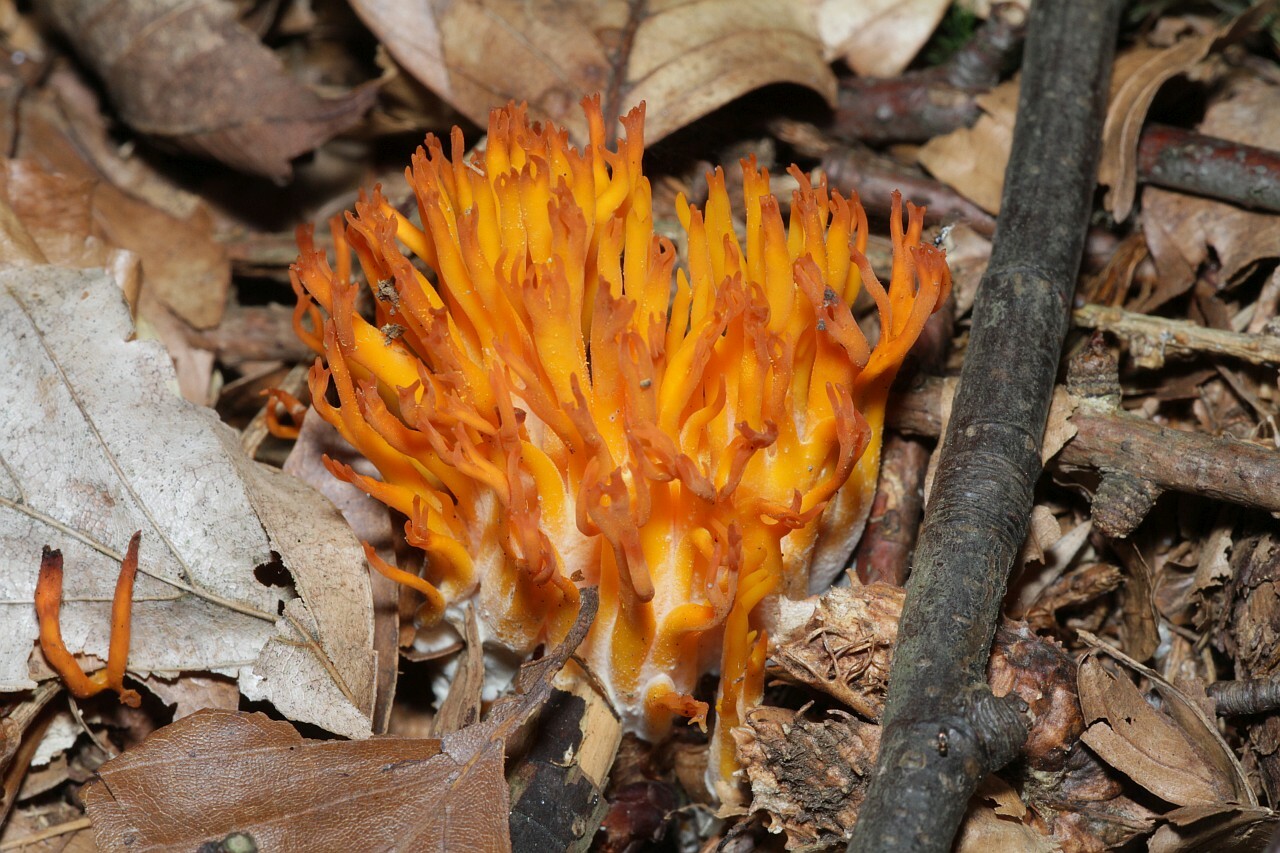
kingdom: Fungi
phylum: Basidiomycota
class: Dacrymycetes
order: Dacrymycetales
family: Dacrymycetaceae
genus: Calocera
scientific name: Calocera viscosa
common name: Yellow stagshorn
